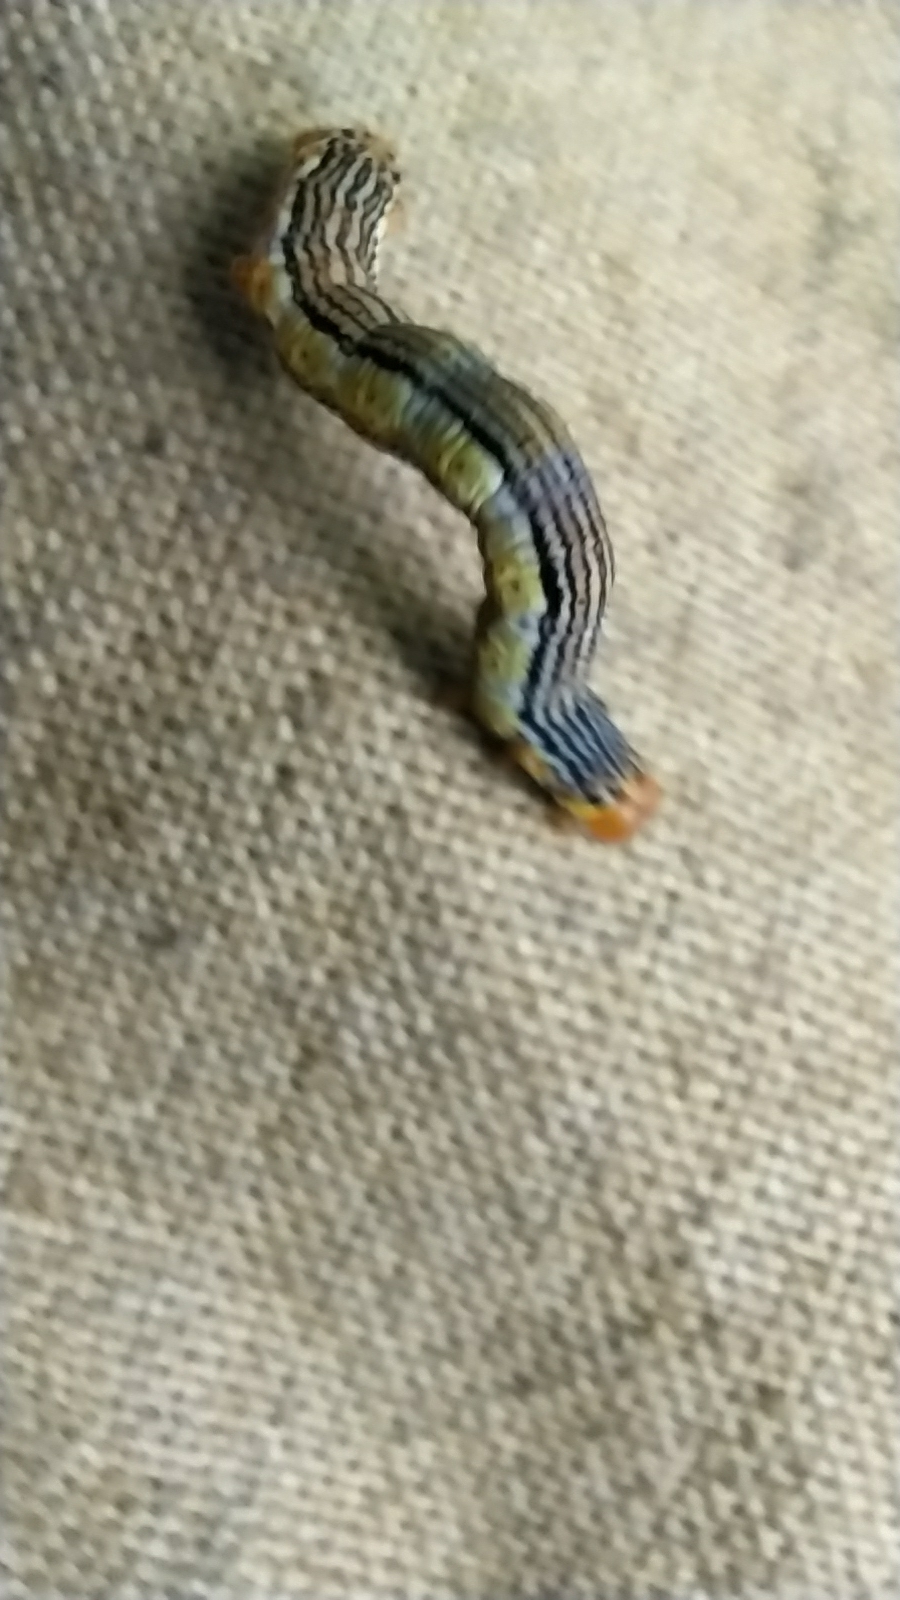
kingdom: Animalia
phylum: Arthropoda
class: Insecta
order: Lepidoptera
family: Geometridae
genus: Arichanna
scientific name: Arichanna melanaria
